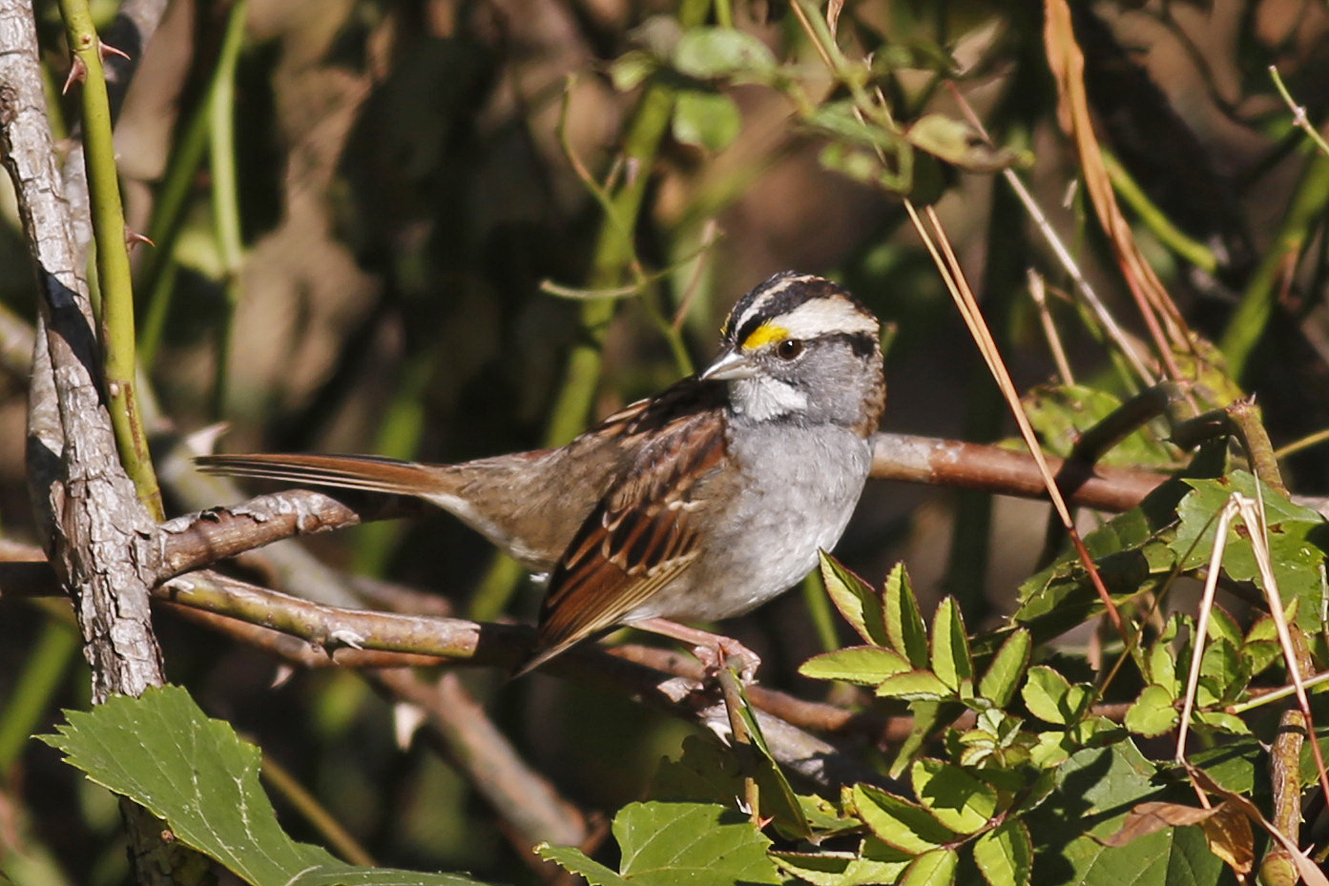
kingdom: Animalia
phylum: Chordata
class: Aves
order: Passeriformes
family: Passerellidae
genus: Zonotrichia
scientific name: Zonotrichia albicollis
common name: White-throated sparrow
